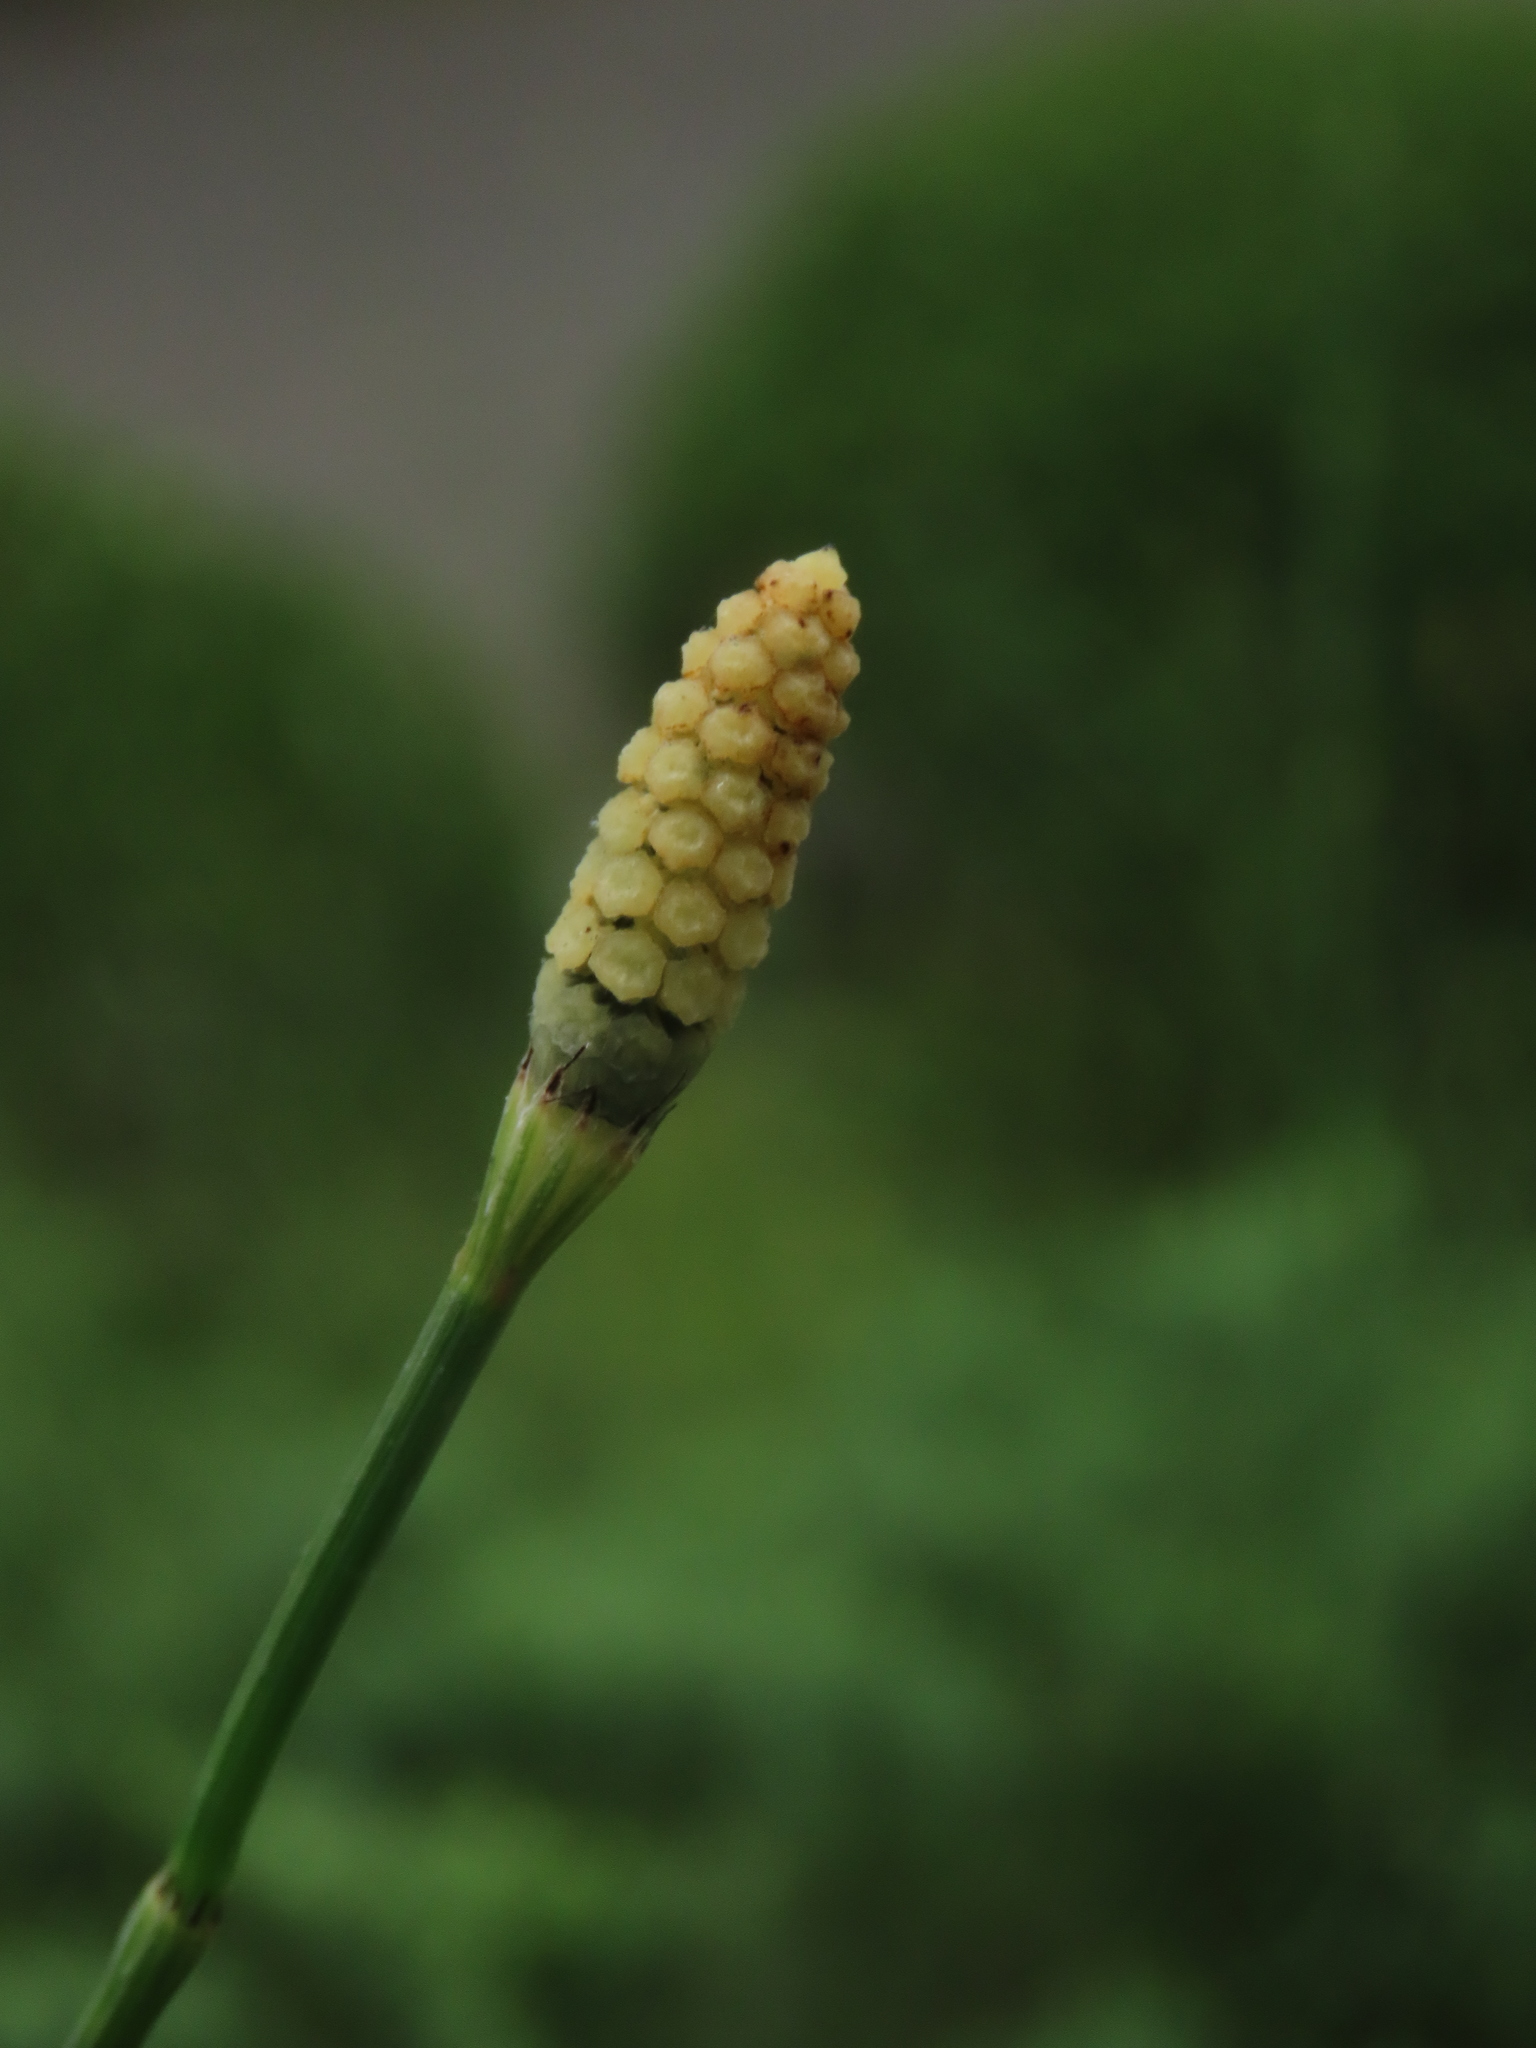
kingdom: Plantae
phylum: Tracheophyta
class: Polypodiopsida
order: Equisetales
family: Equisetaceae
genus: Equisetum
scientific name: Equisetum ramosissimum
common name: Branched horsetail
